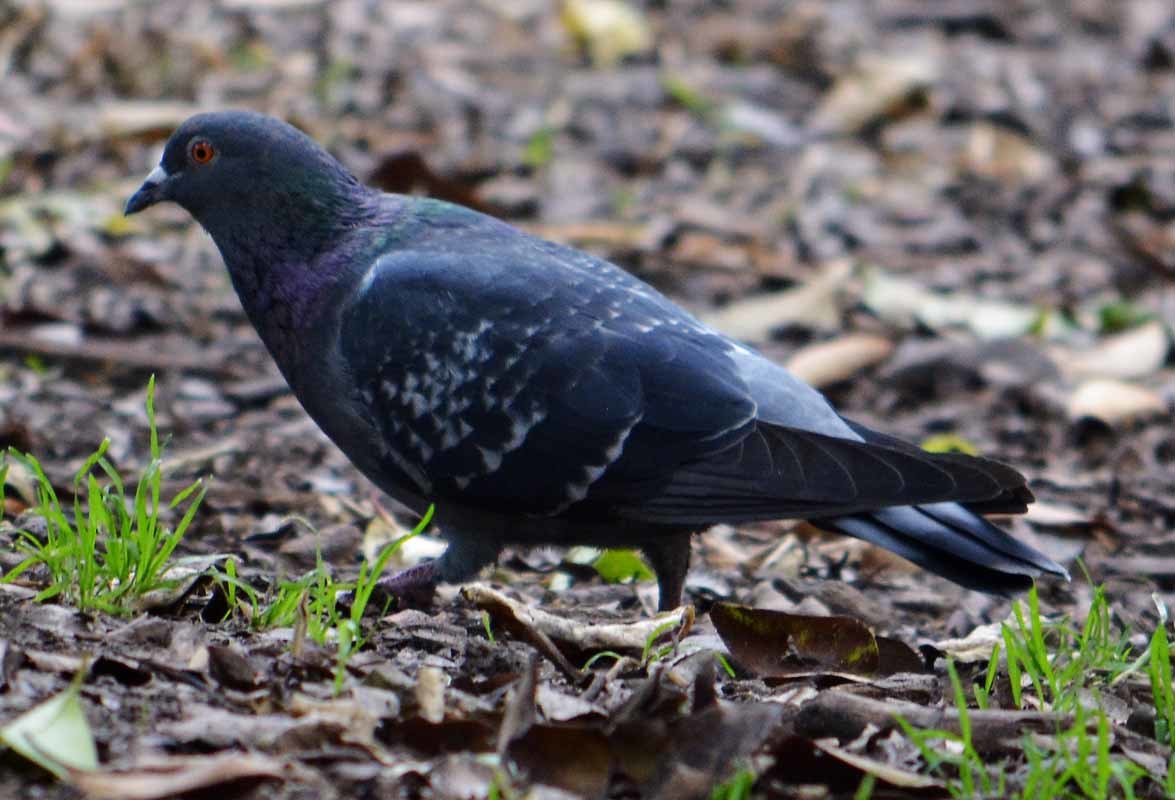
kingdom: Animalia
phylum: Chordata
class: Aves
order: Columbiformes
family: Columbidae
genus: Columba
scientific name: Columba livia
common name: Rock pigeon
